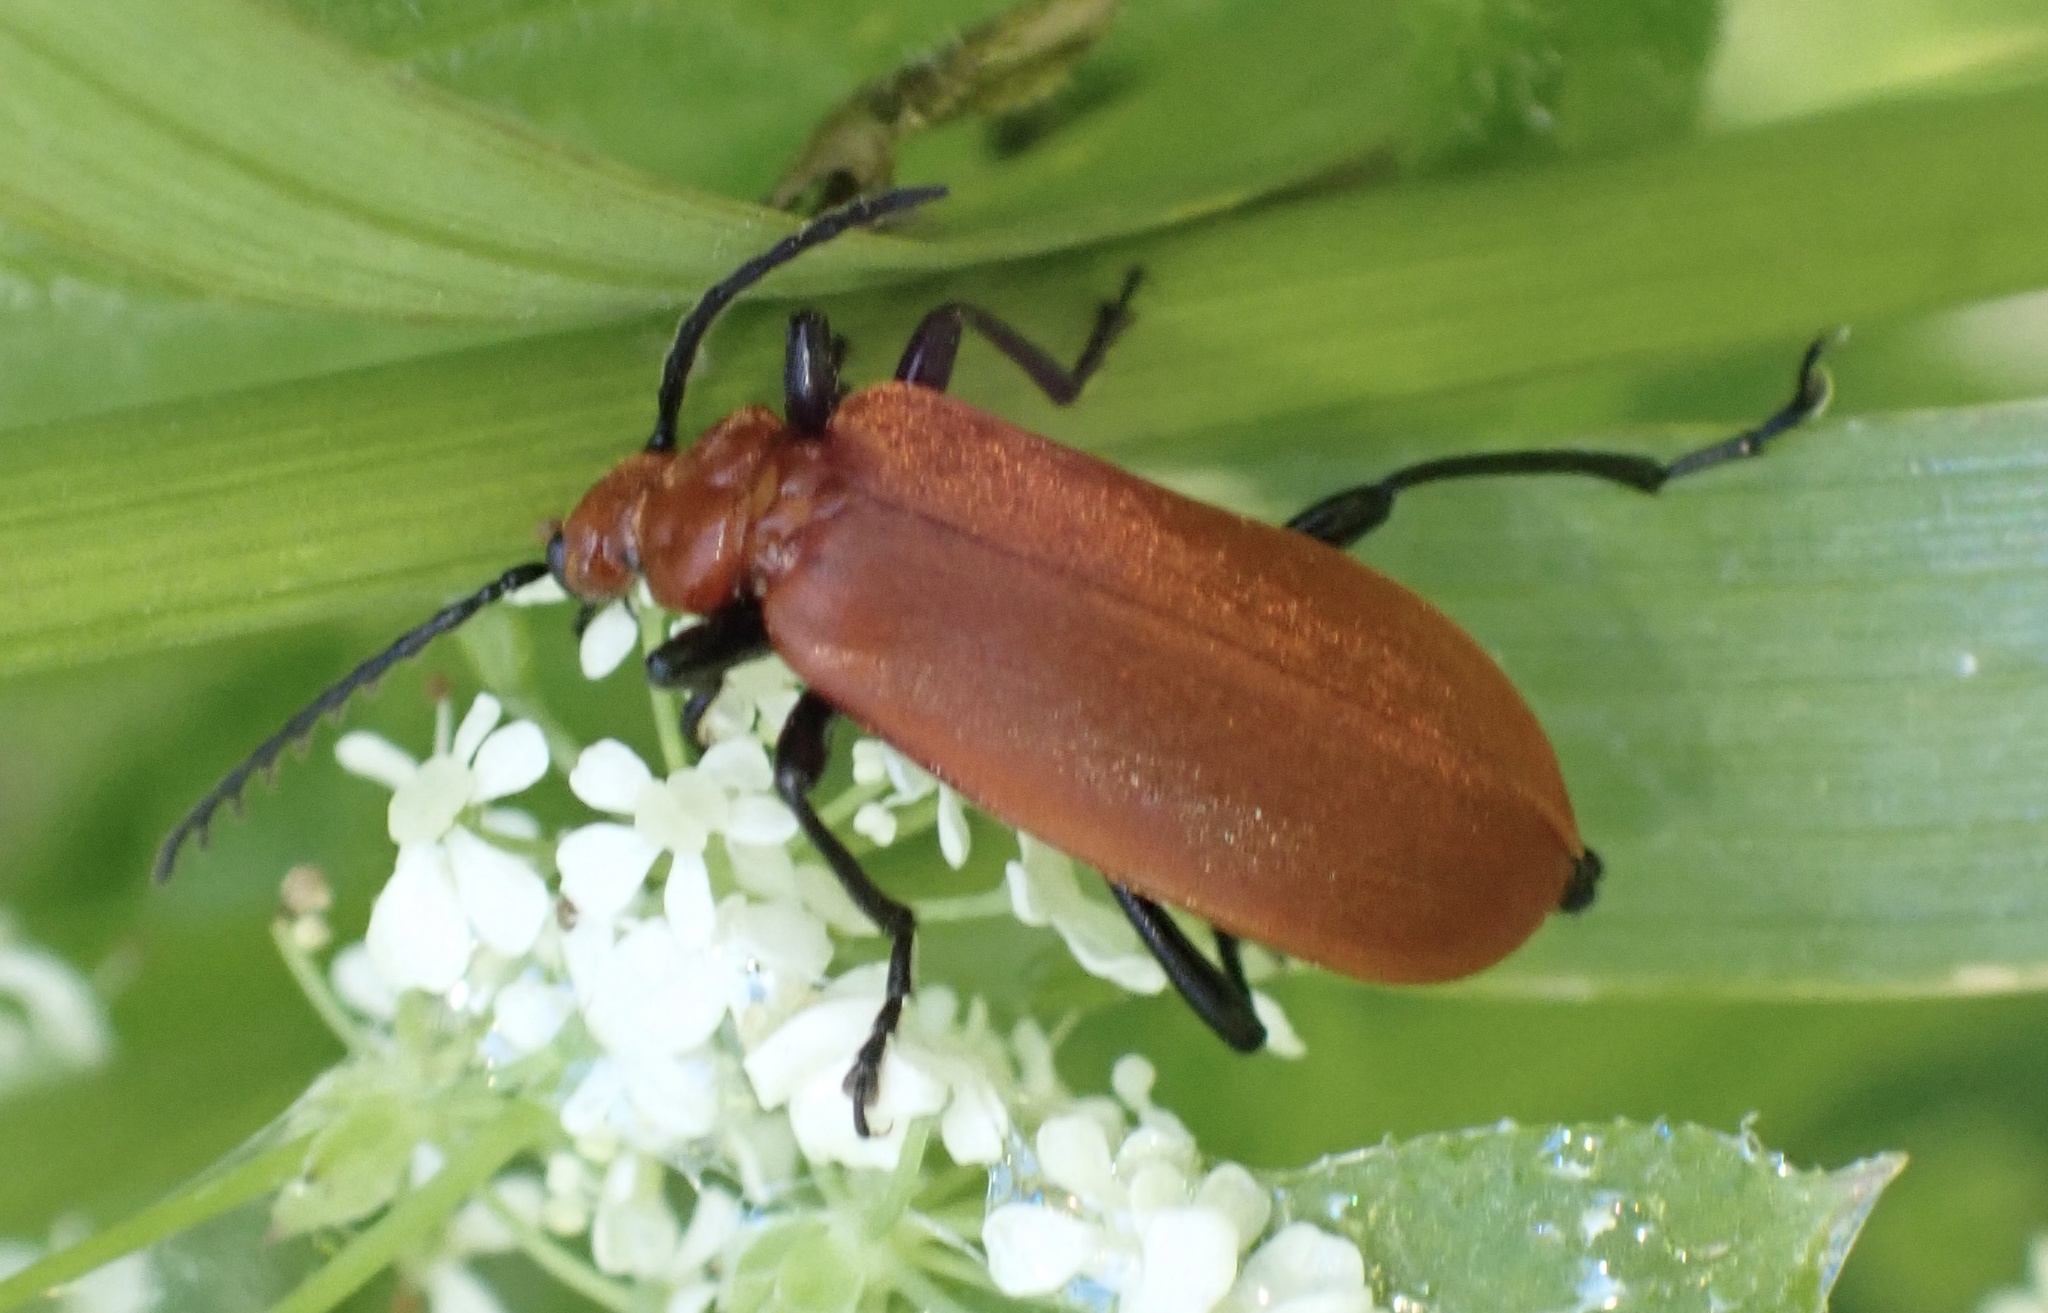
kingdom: Animalia
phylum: Arthropoda
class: Insecta
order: Coleoptera
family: Pyrochroidae
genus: Pyrochroa
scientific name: Pyrochroa serraticornis
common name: Red-headed cardinal beetle
